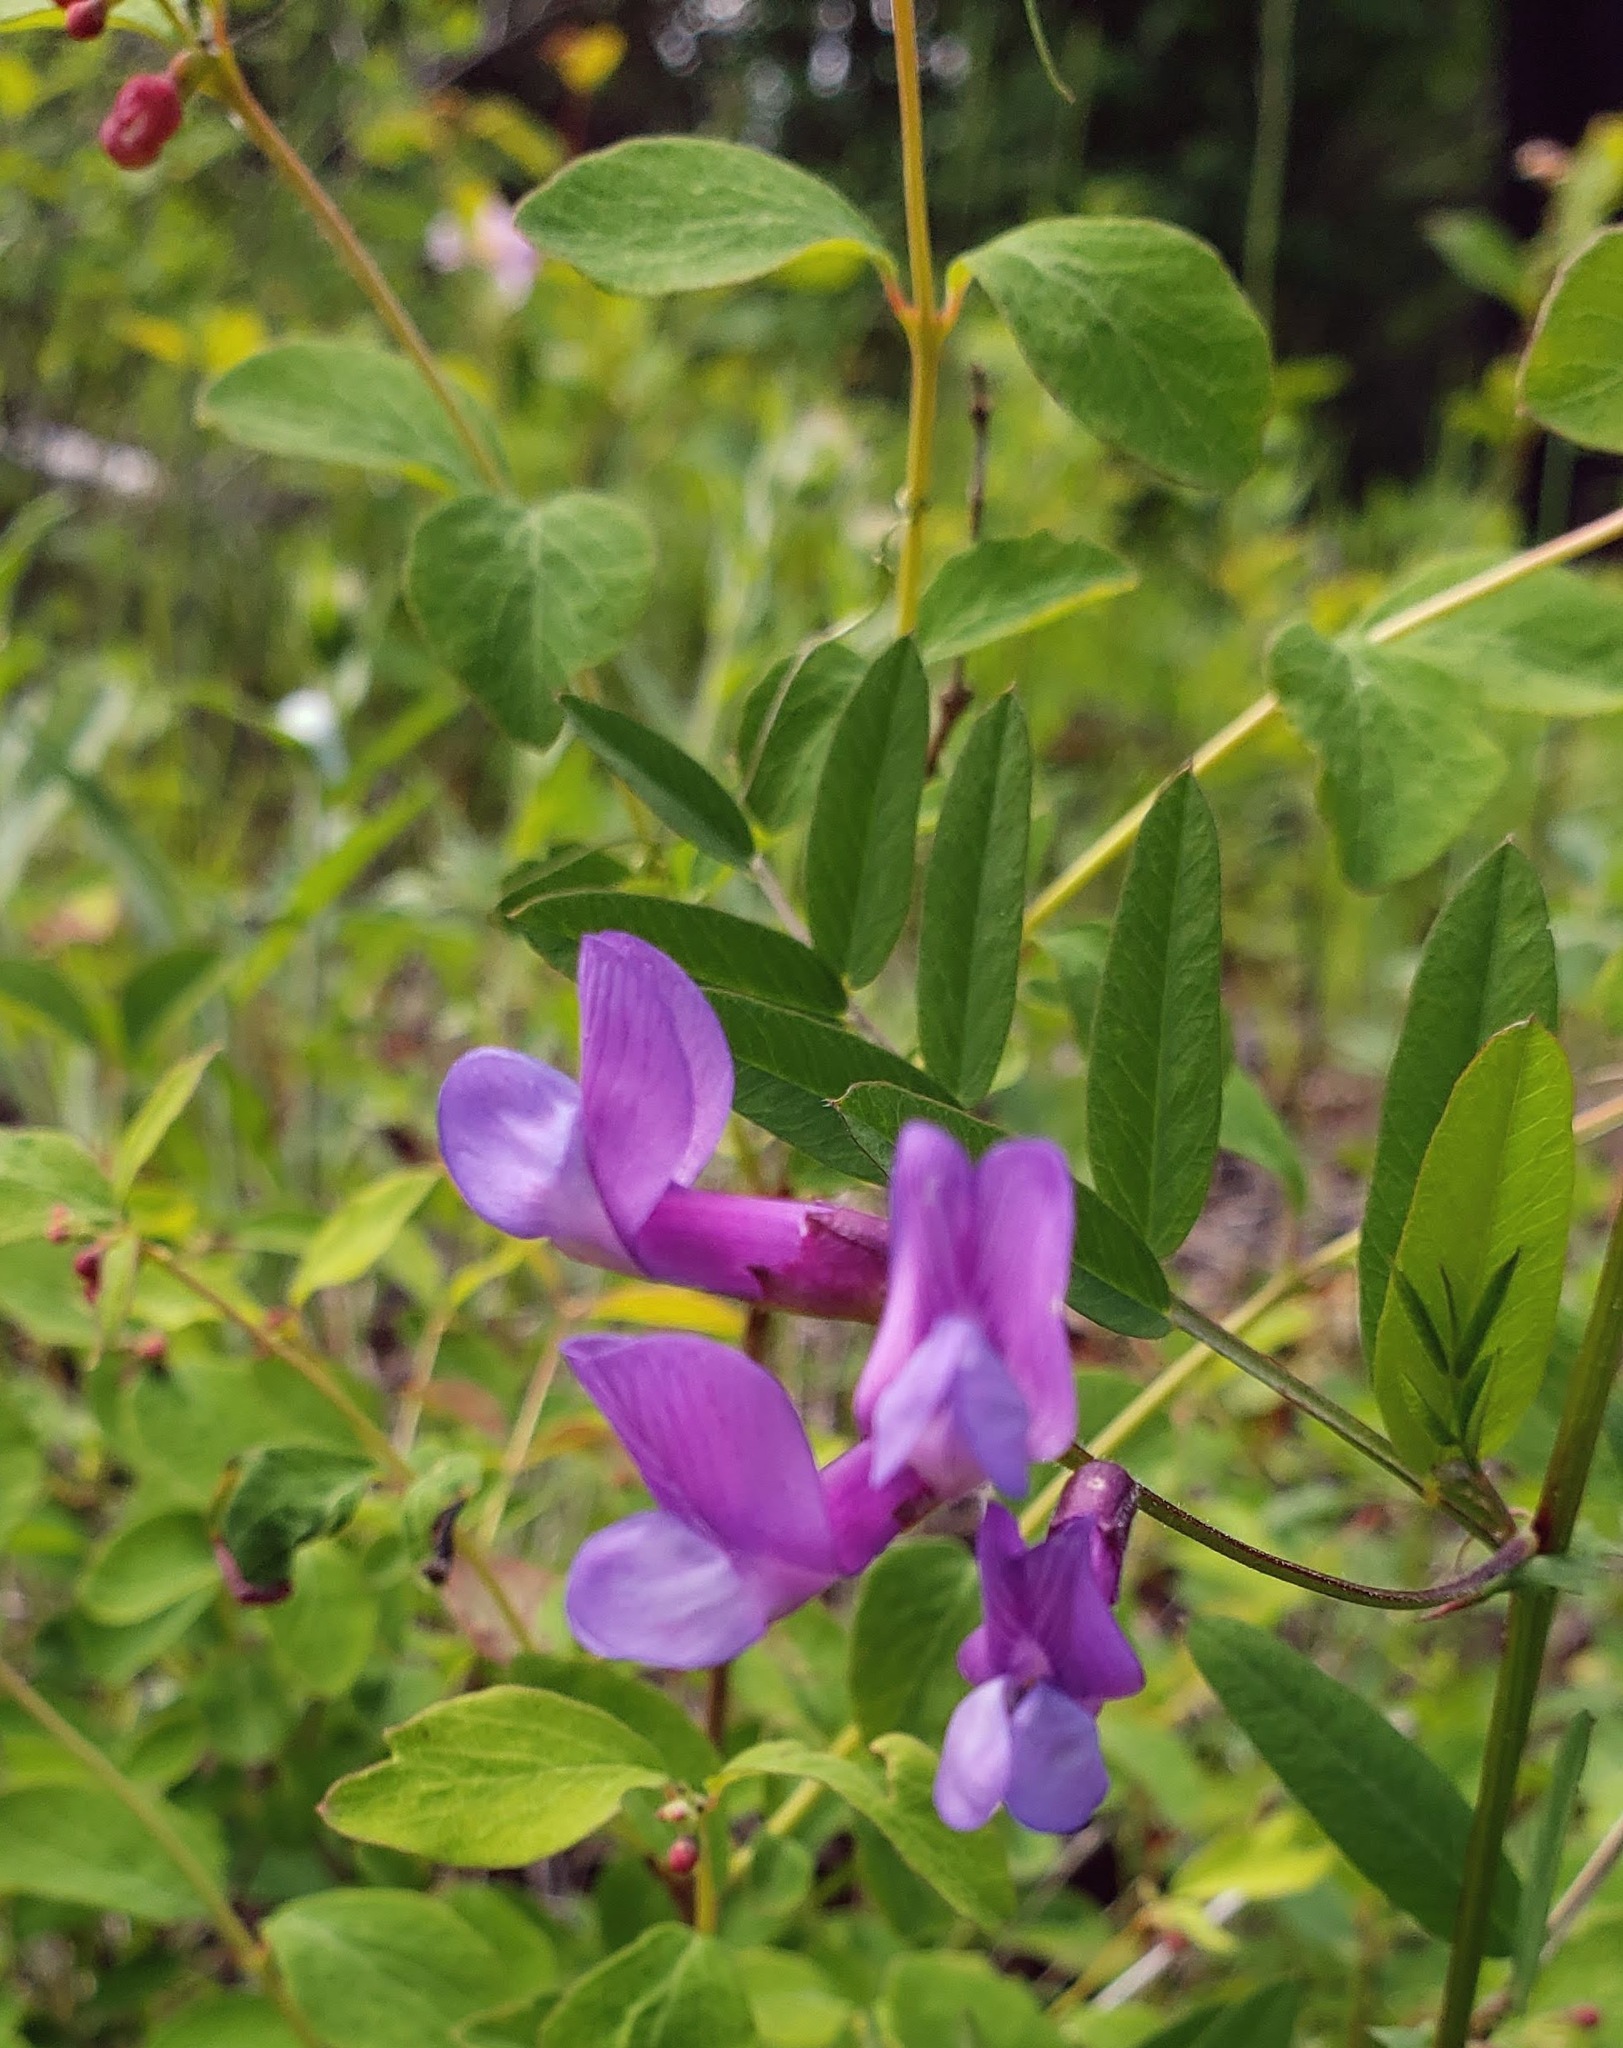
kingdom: Plantae
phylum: Tracheophyta
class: Magnoliopsida
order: Fabales
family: Fabaceae
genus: Vicia
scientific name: Vicia americana
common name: American vetch
